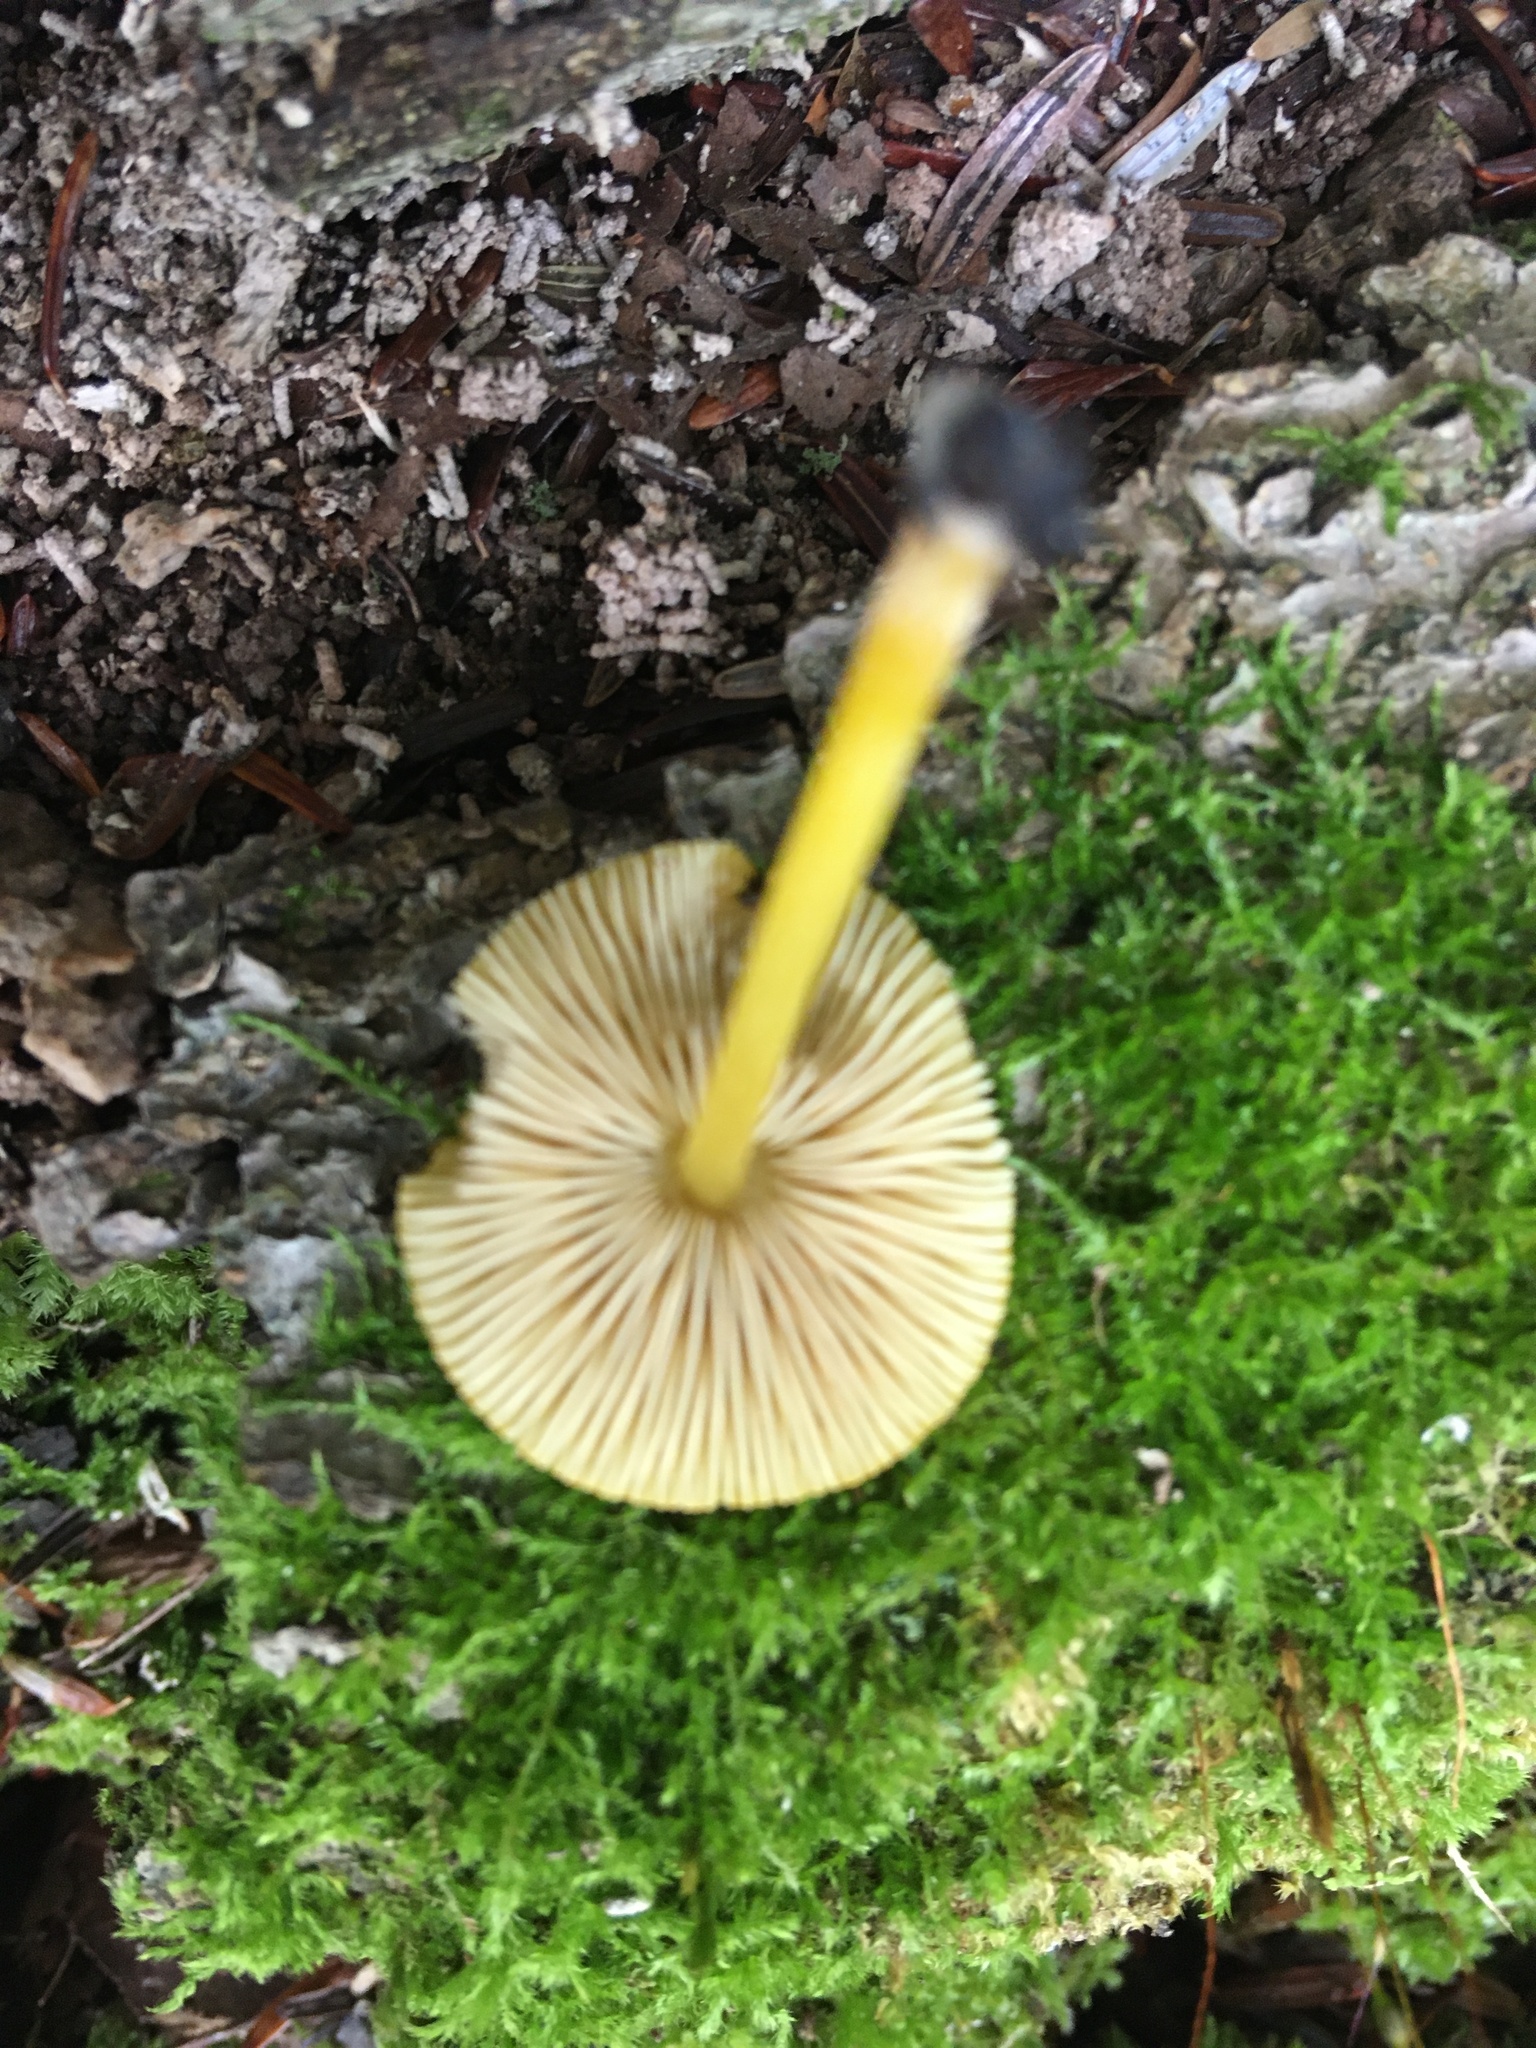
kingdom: Fungi
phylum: Basidiomycota
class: Agaricomycetes
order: Agaricales
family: Pluteaceae
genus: Pluteus
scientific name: Pluteus chrysophlebius
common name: Yellow deer mushroom
